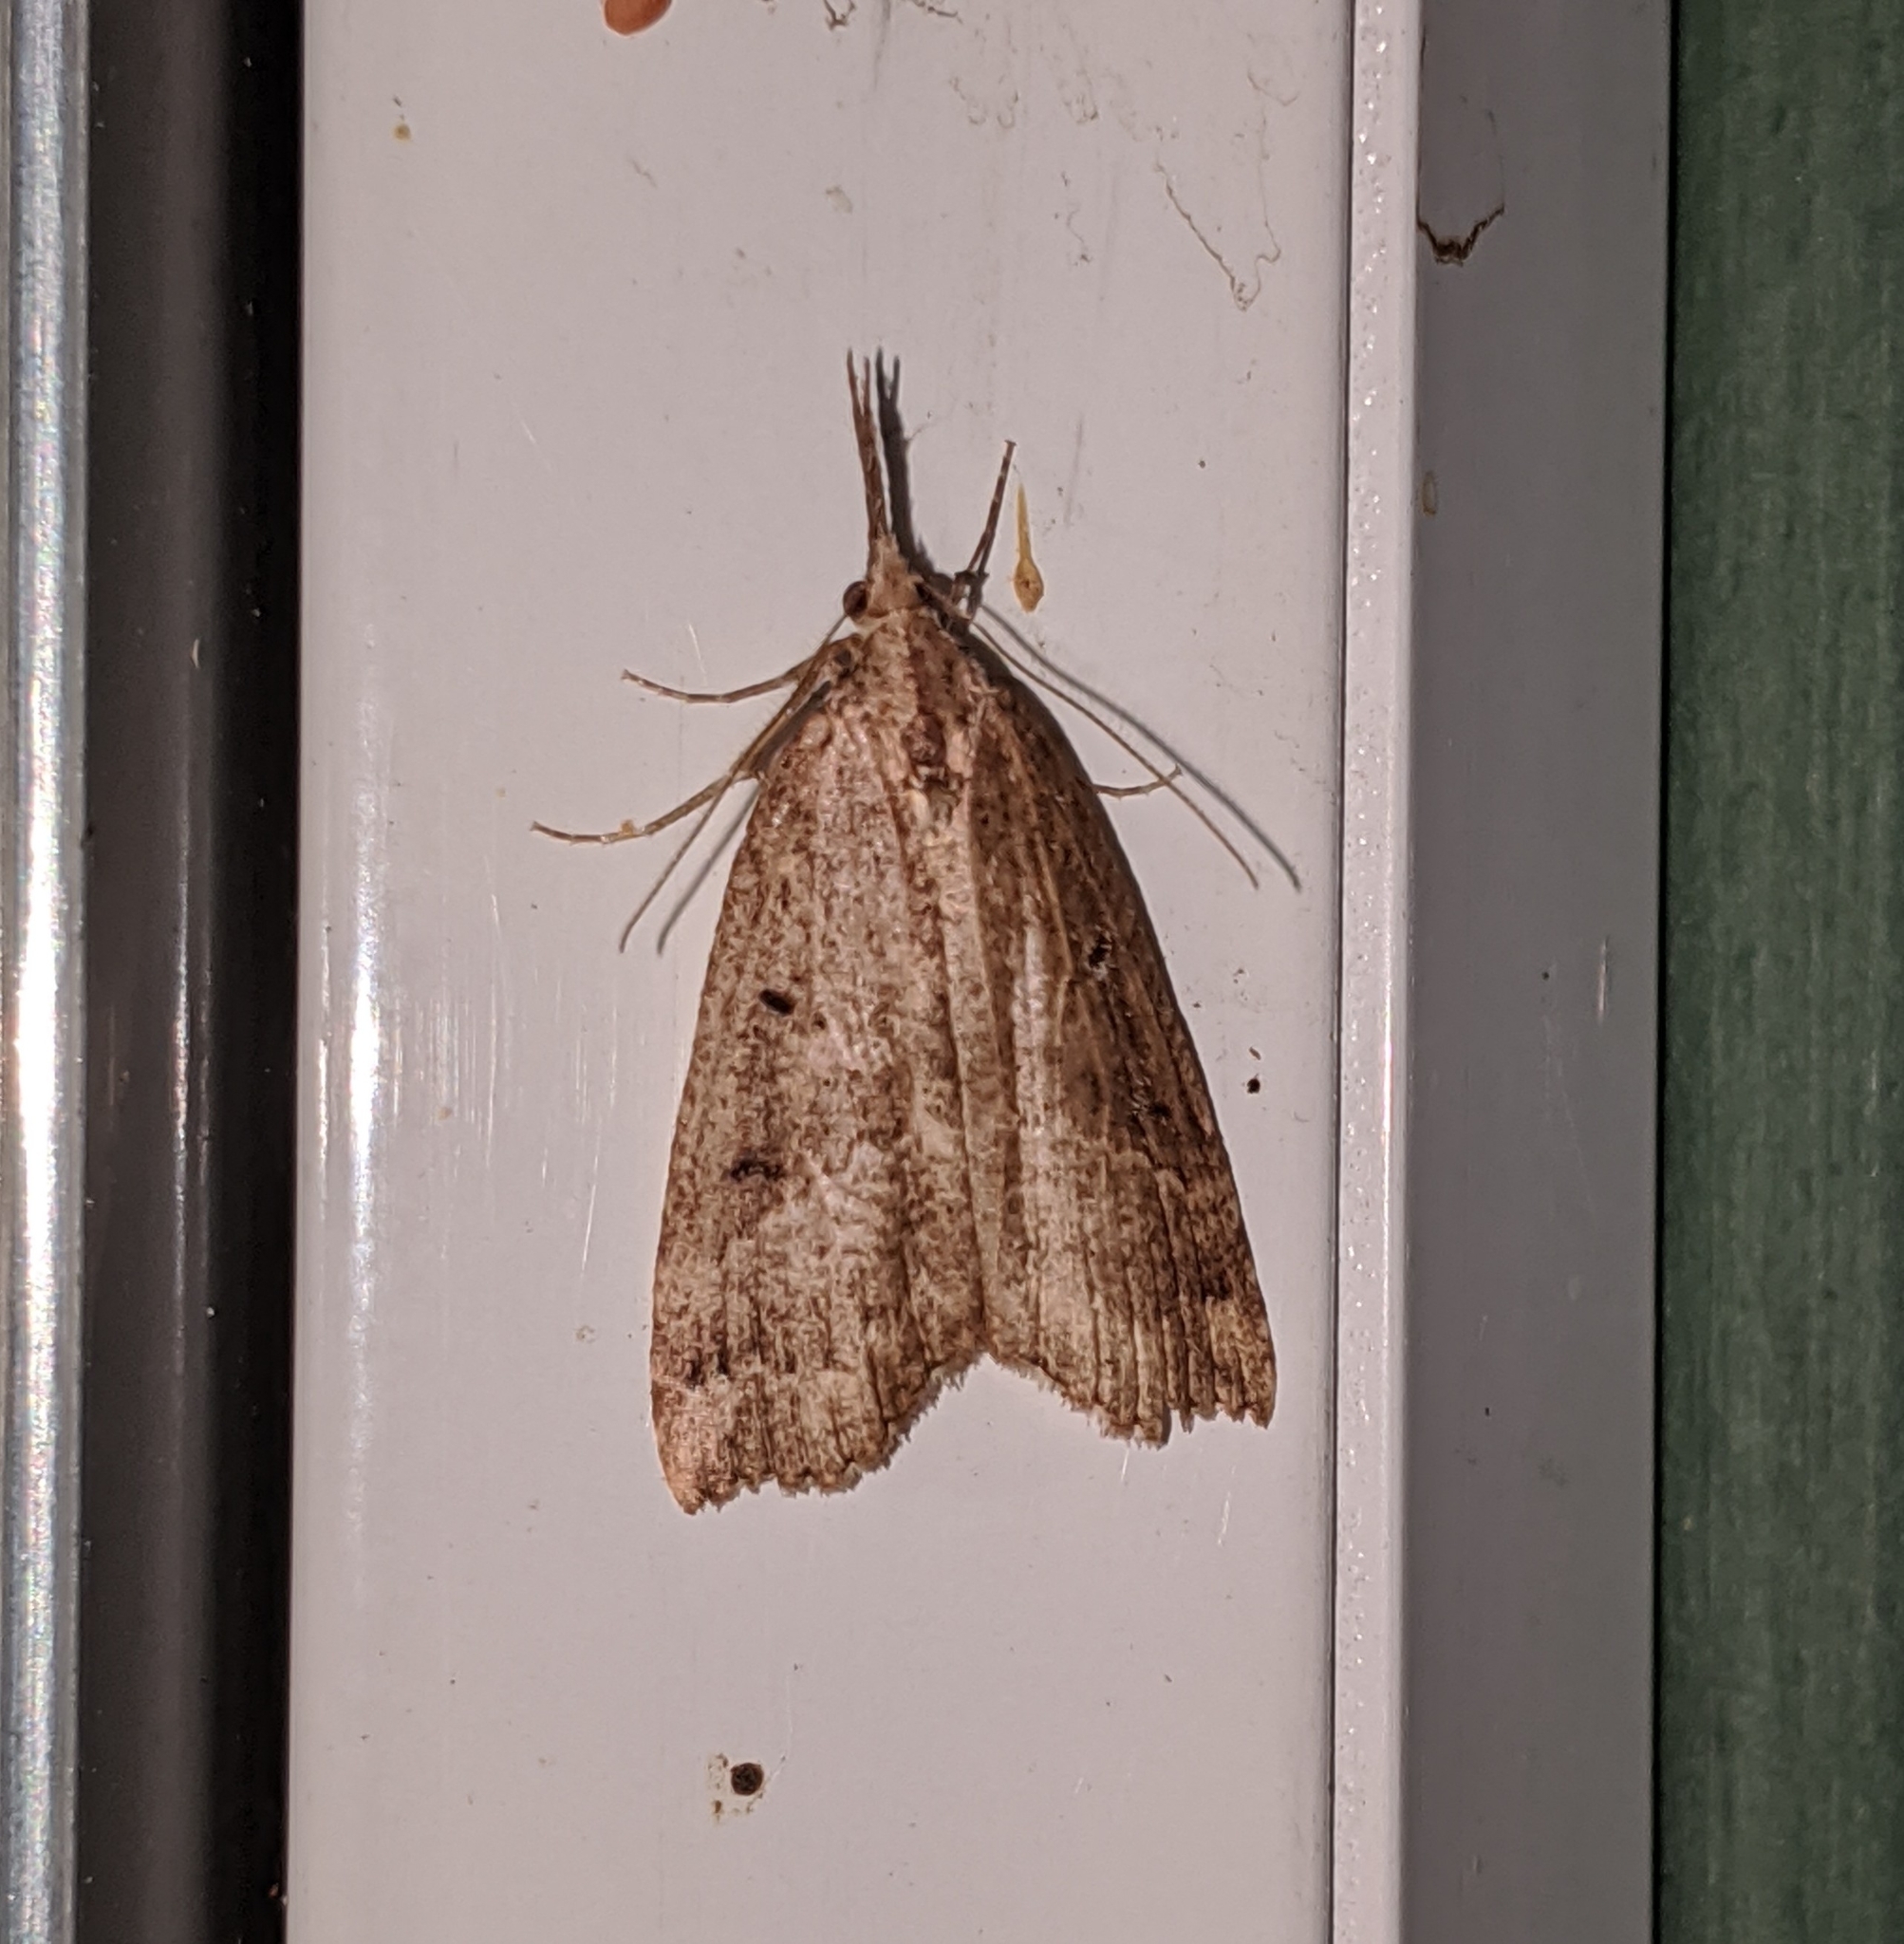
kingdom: Animalia
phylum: Arthropoda
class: Insecta
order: Lepidoptera
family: Erebidae
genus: Hypena
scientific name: Hypena californica
